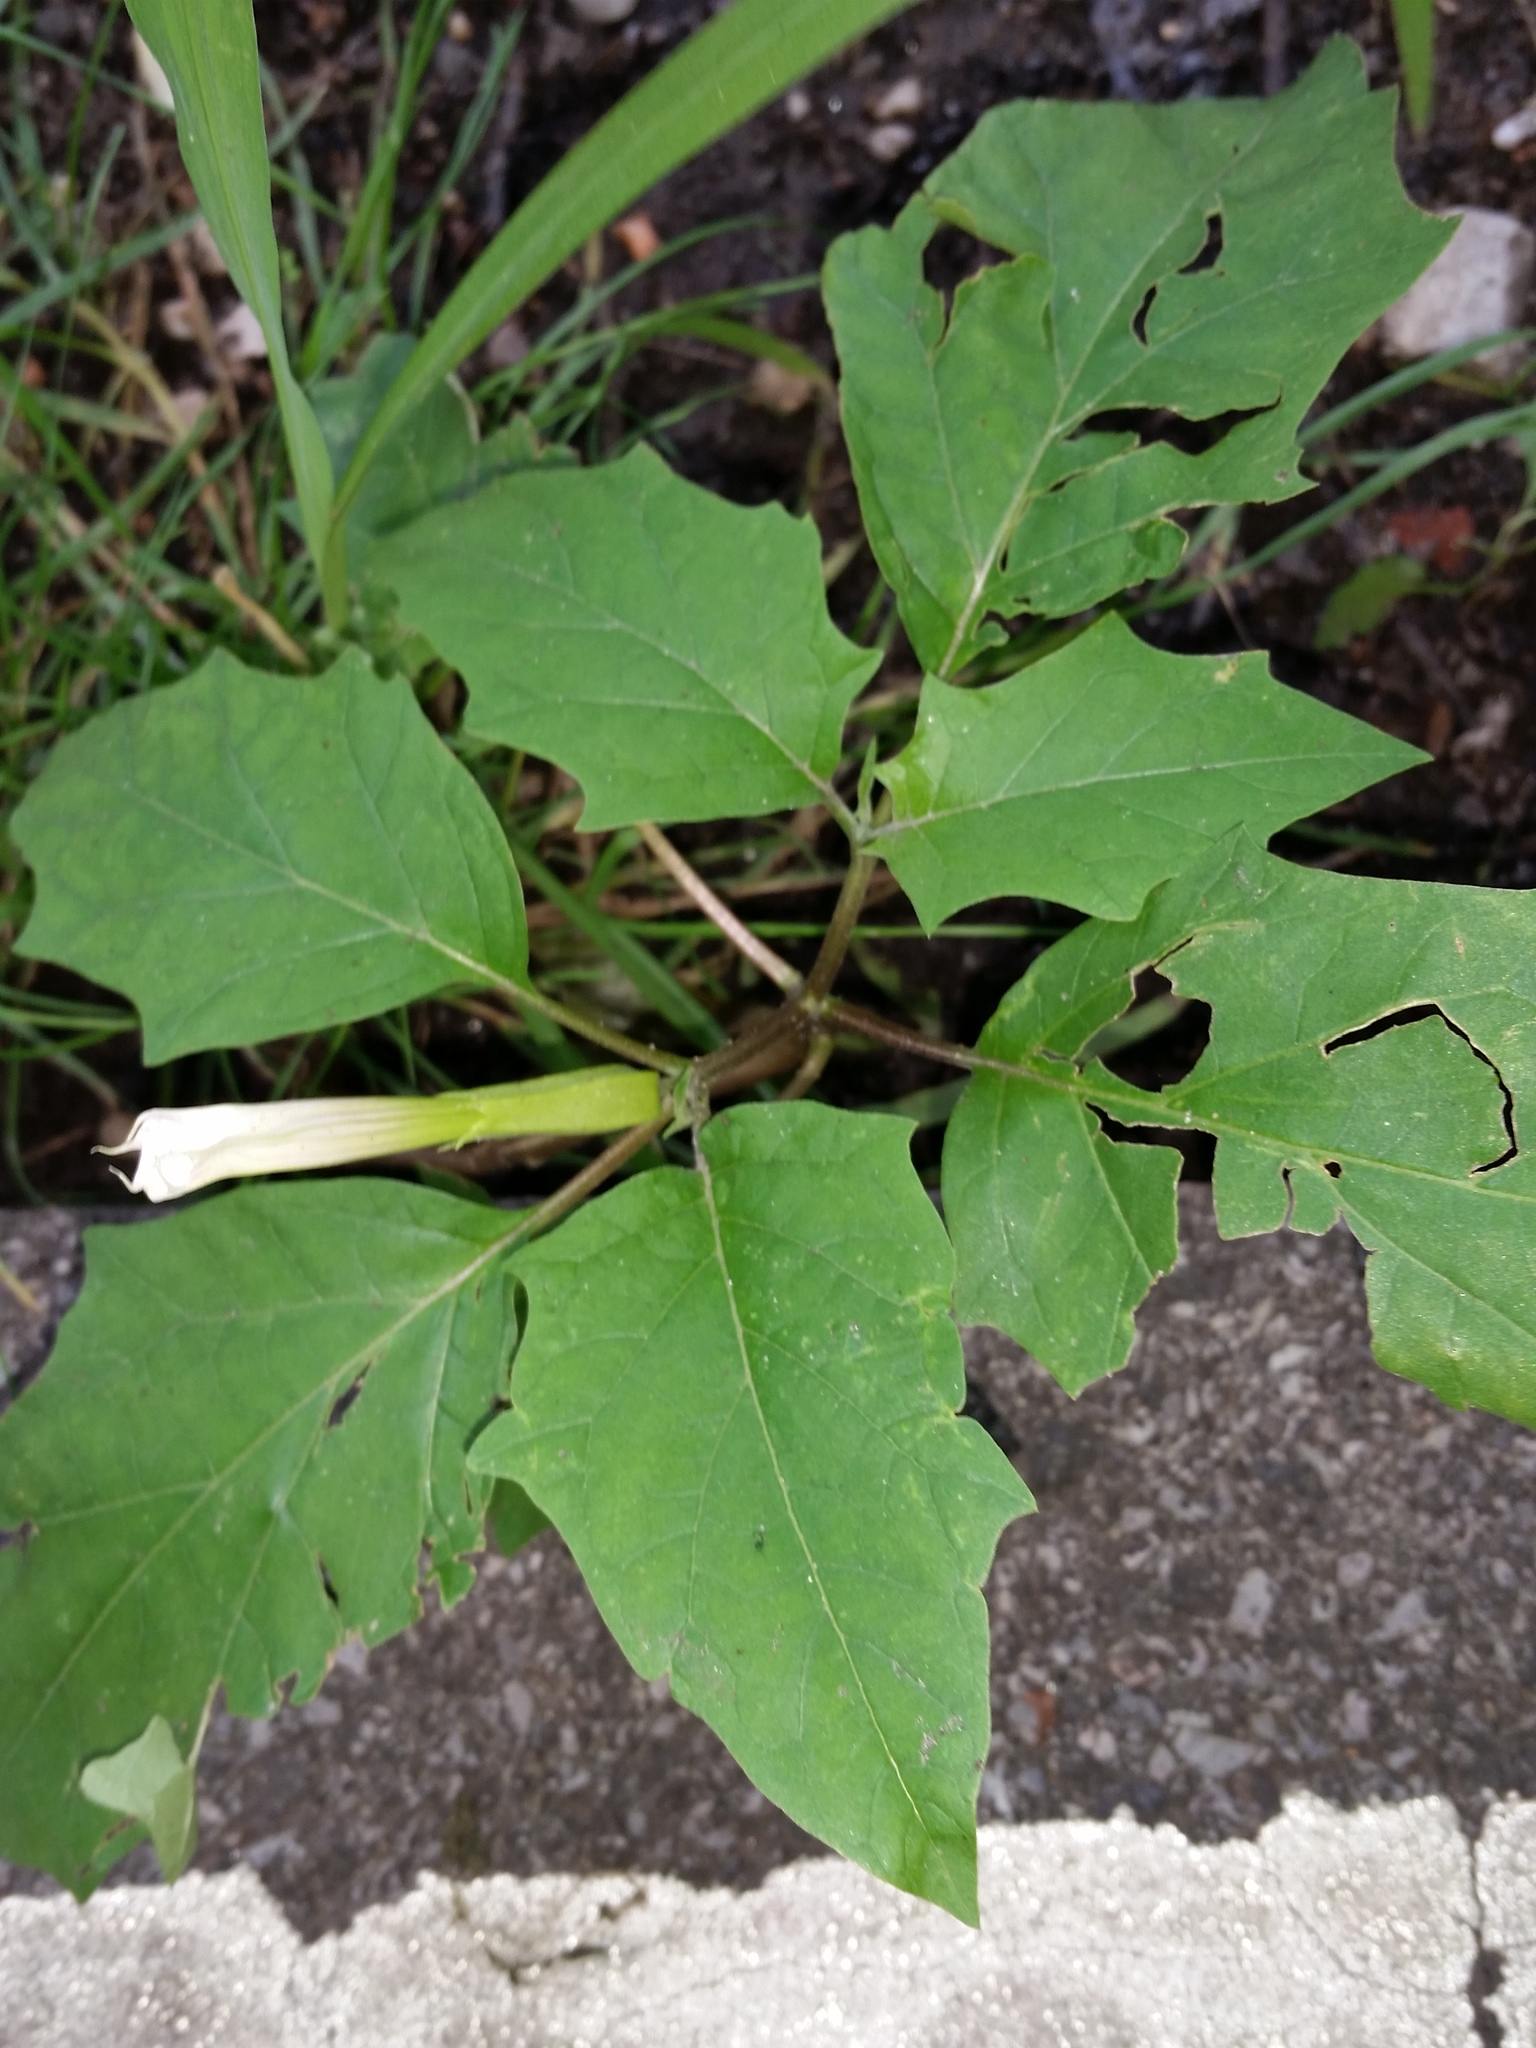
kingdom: Plantae
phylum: Tracheophyta
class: Magnoliopsida
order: Solanales
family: Solanaceae
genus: Datura
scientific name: Datura stramonium
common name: Thorn-apple
